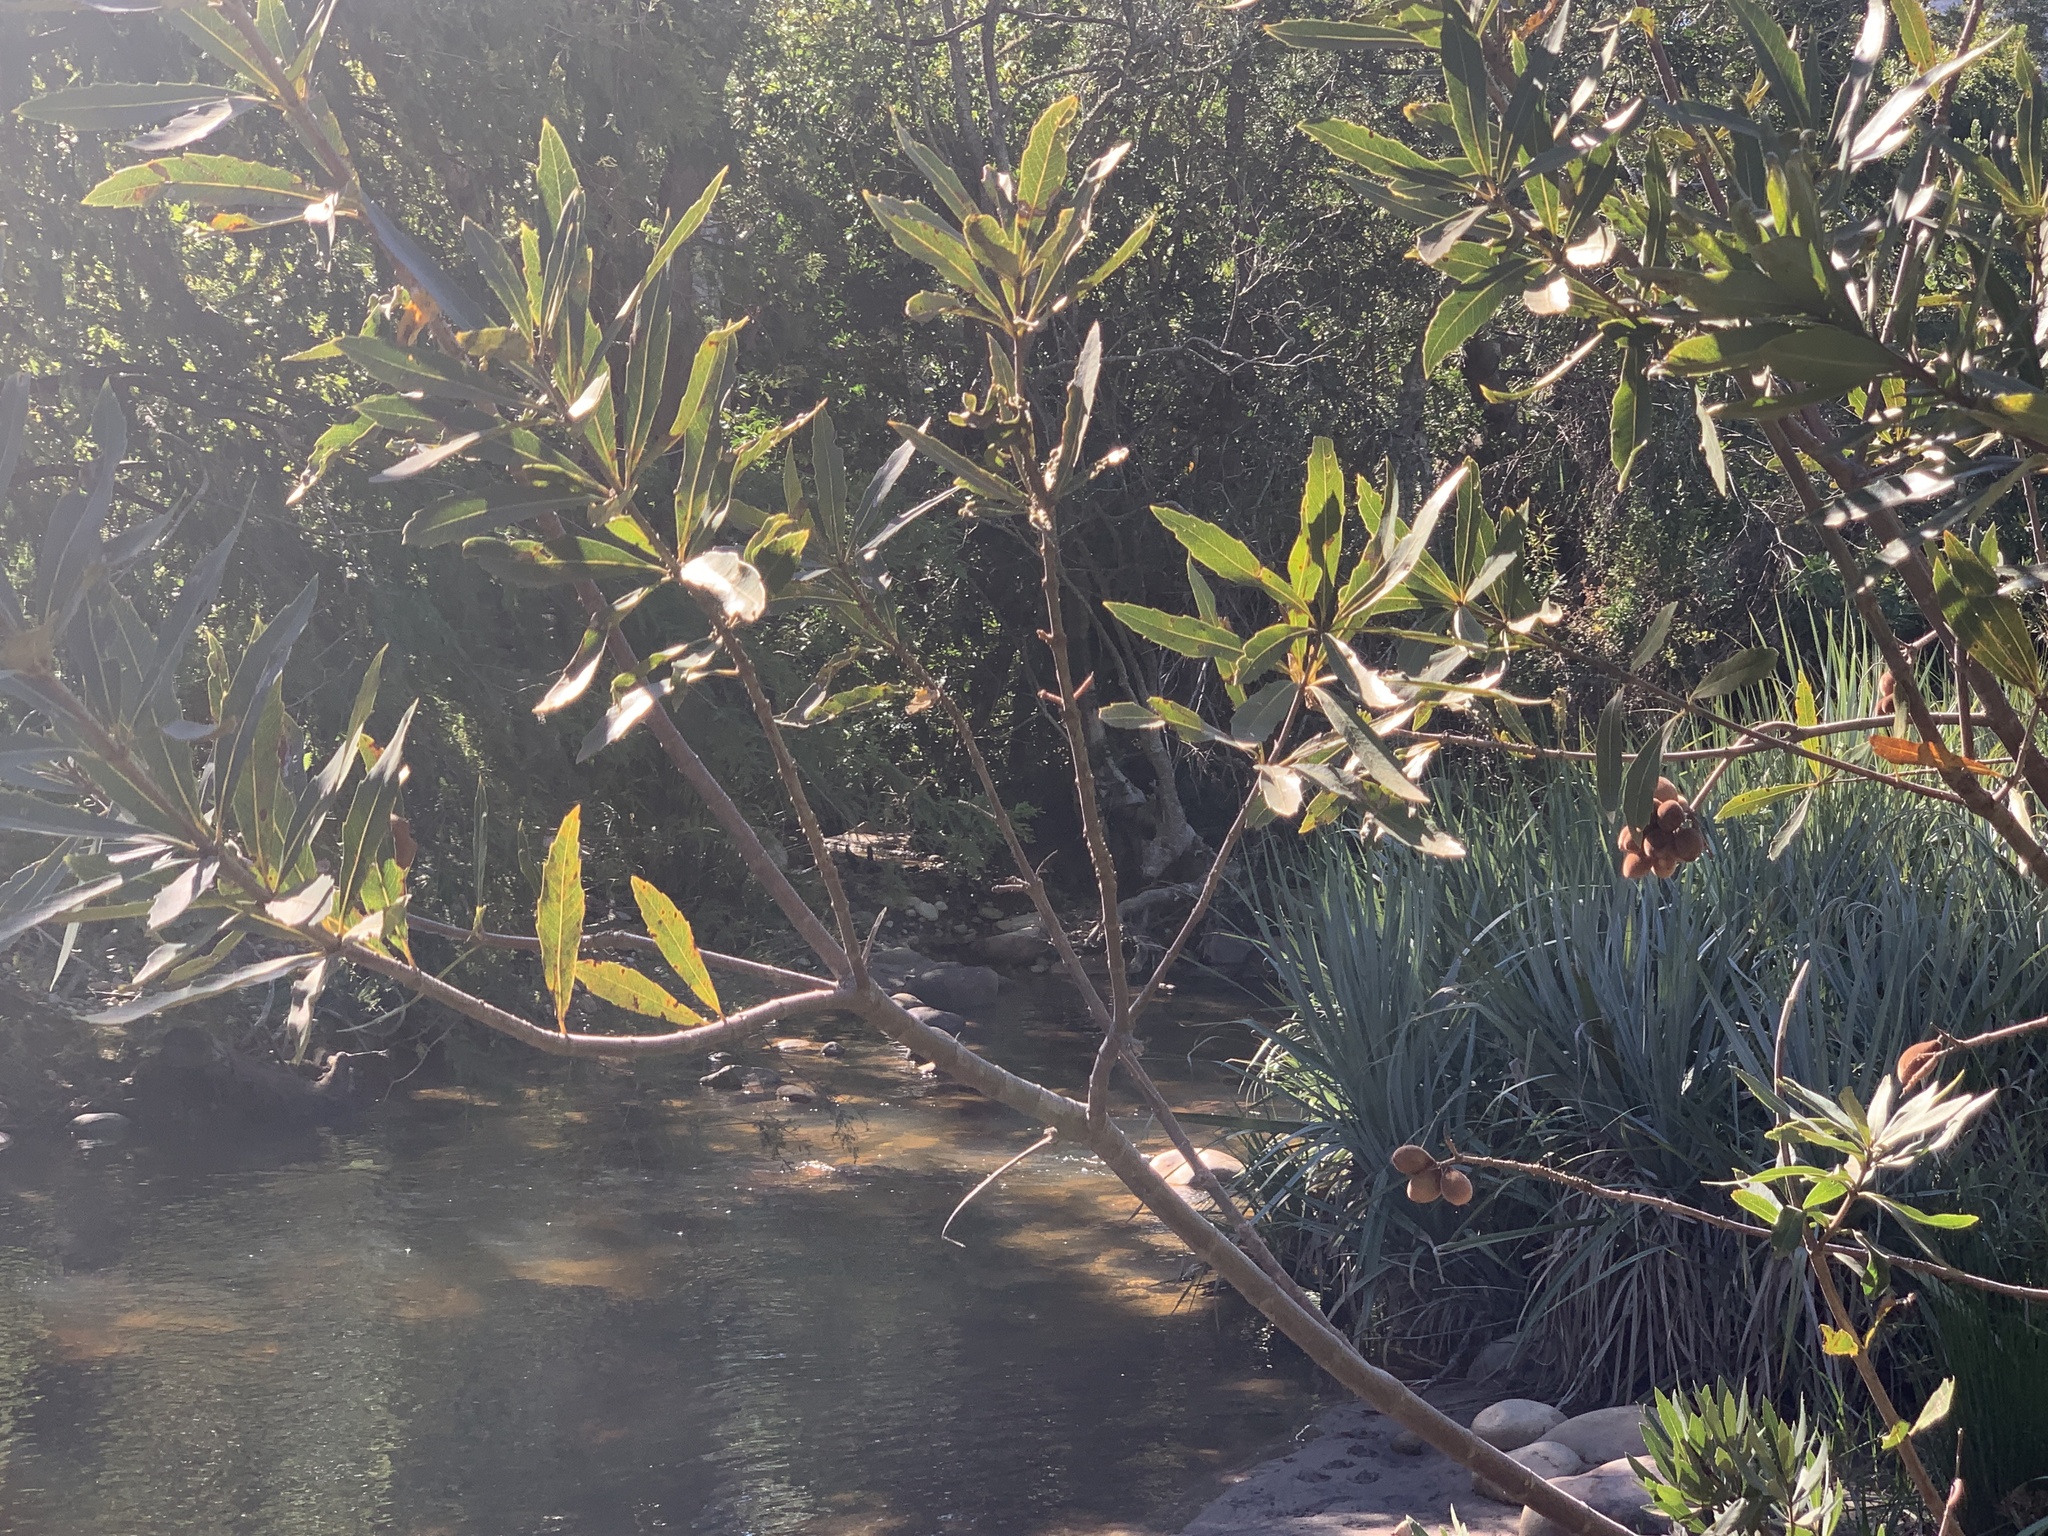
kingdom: Plantae
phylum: Tracheophyta
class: Magnoliopsida
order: Proteales
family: Proteaceae
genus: Brabejum
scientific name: Brabejum stellatifolium
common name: Wild almond
